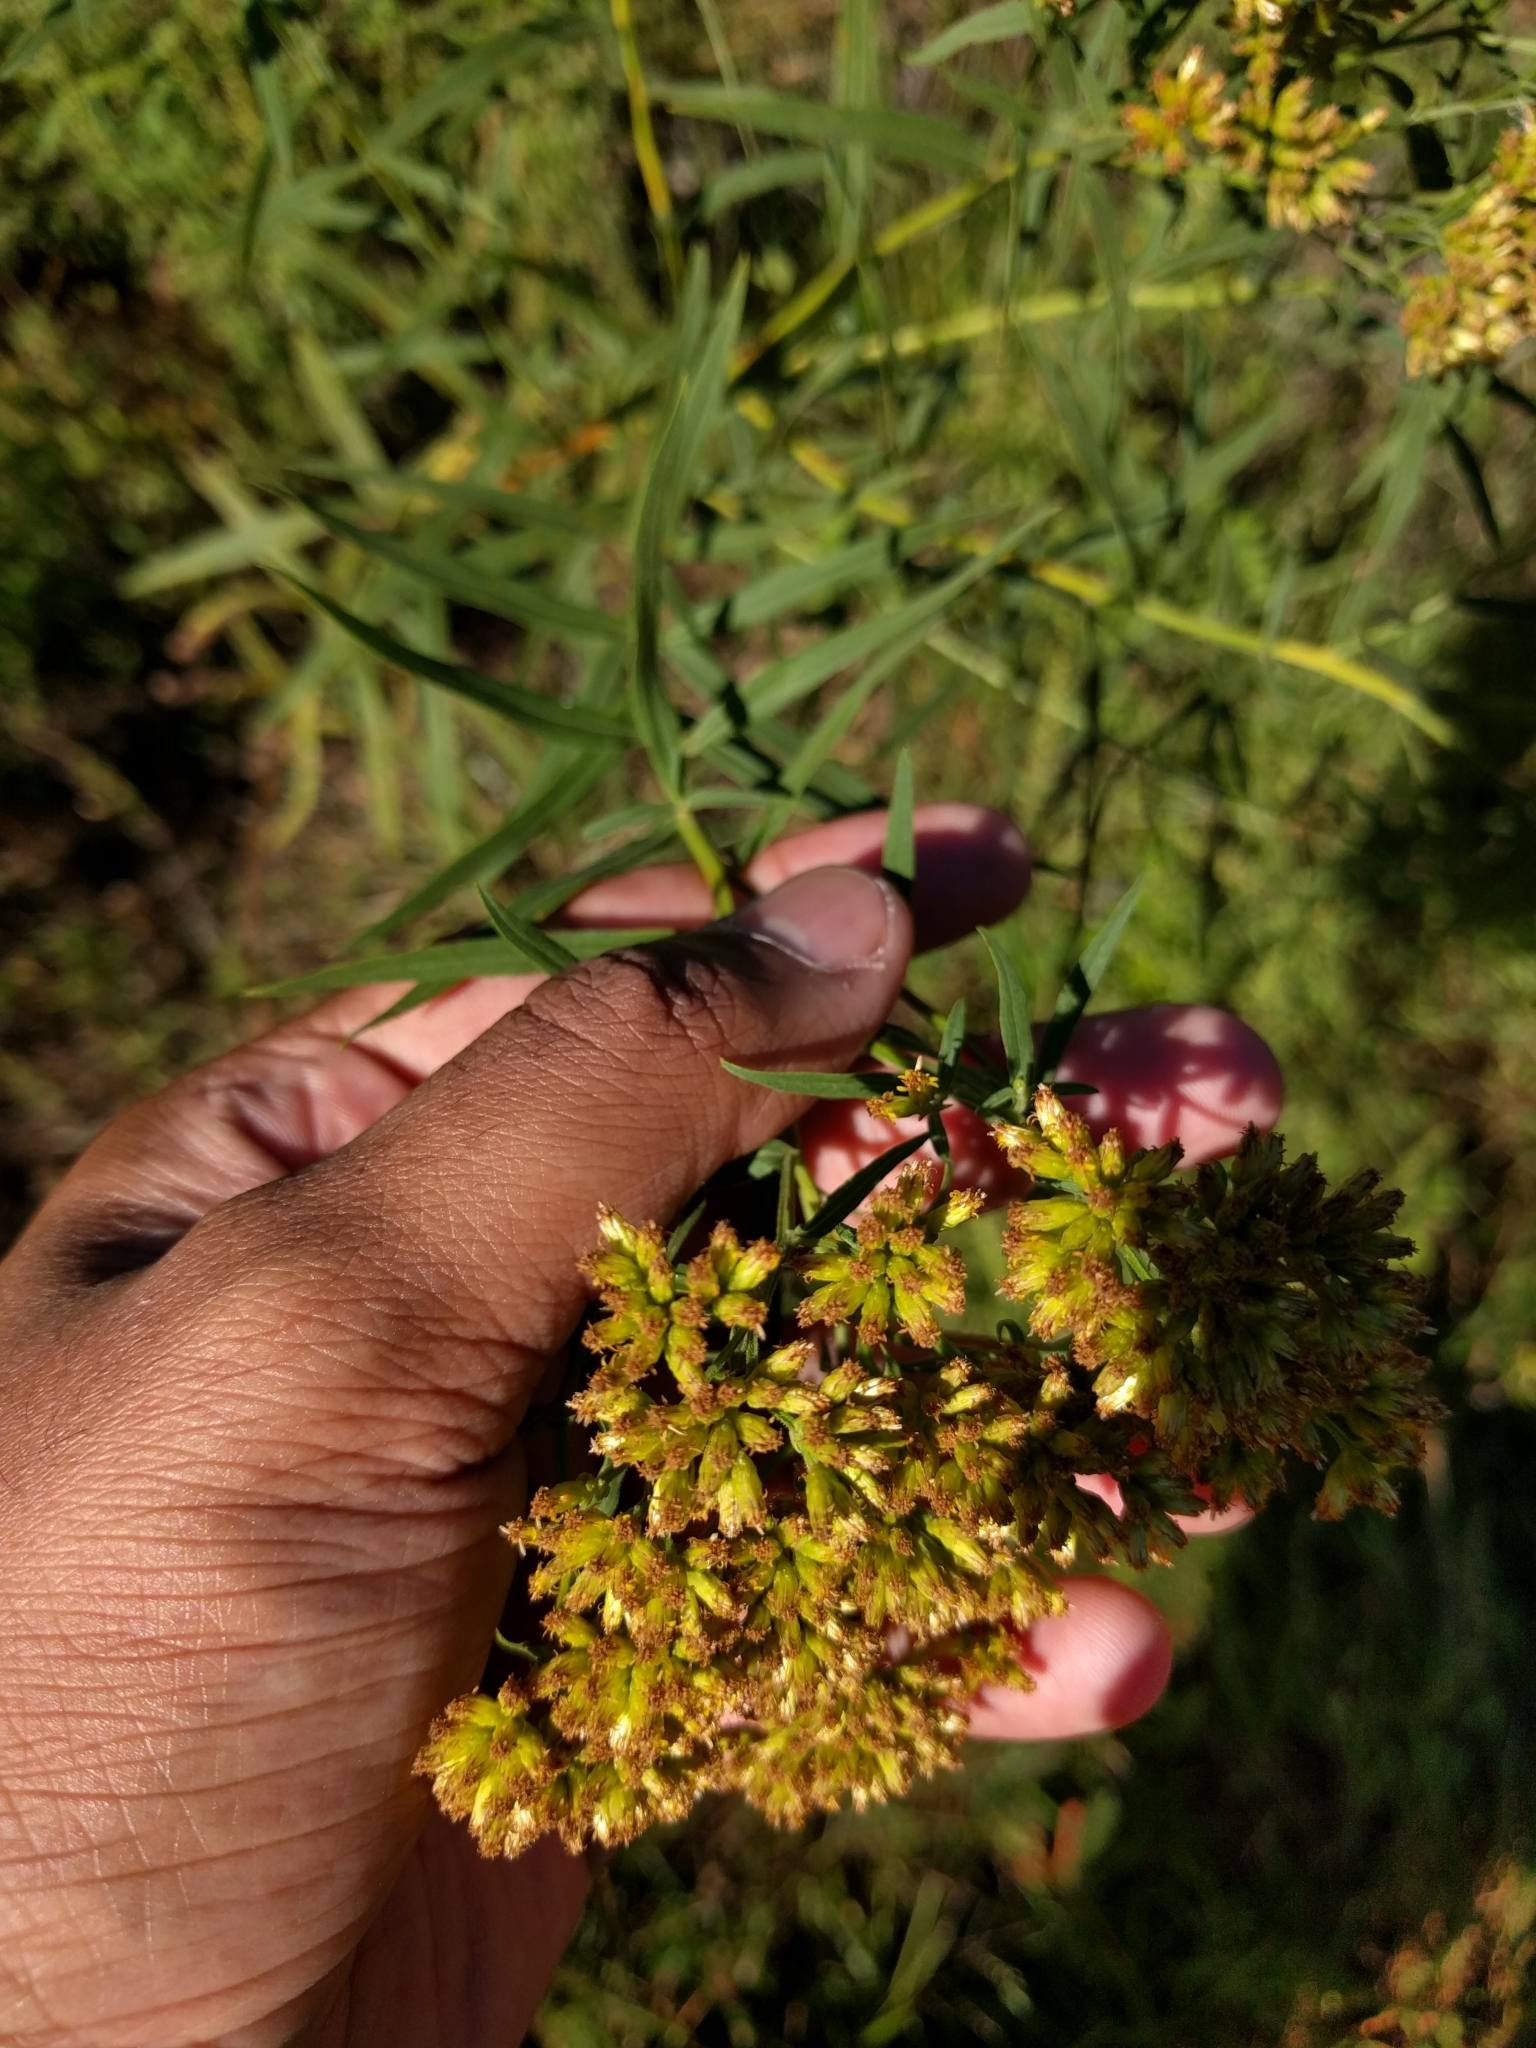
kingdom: Plantae
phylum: Tracheophyta
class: Magnoliopsida
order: Asterales
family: Asteraceae
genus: Euthamia
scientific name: Euthamia graminifolia
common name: Common goldentop
